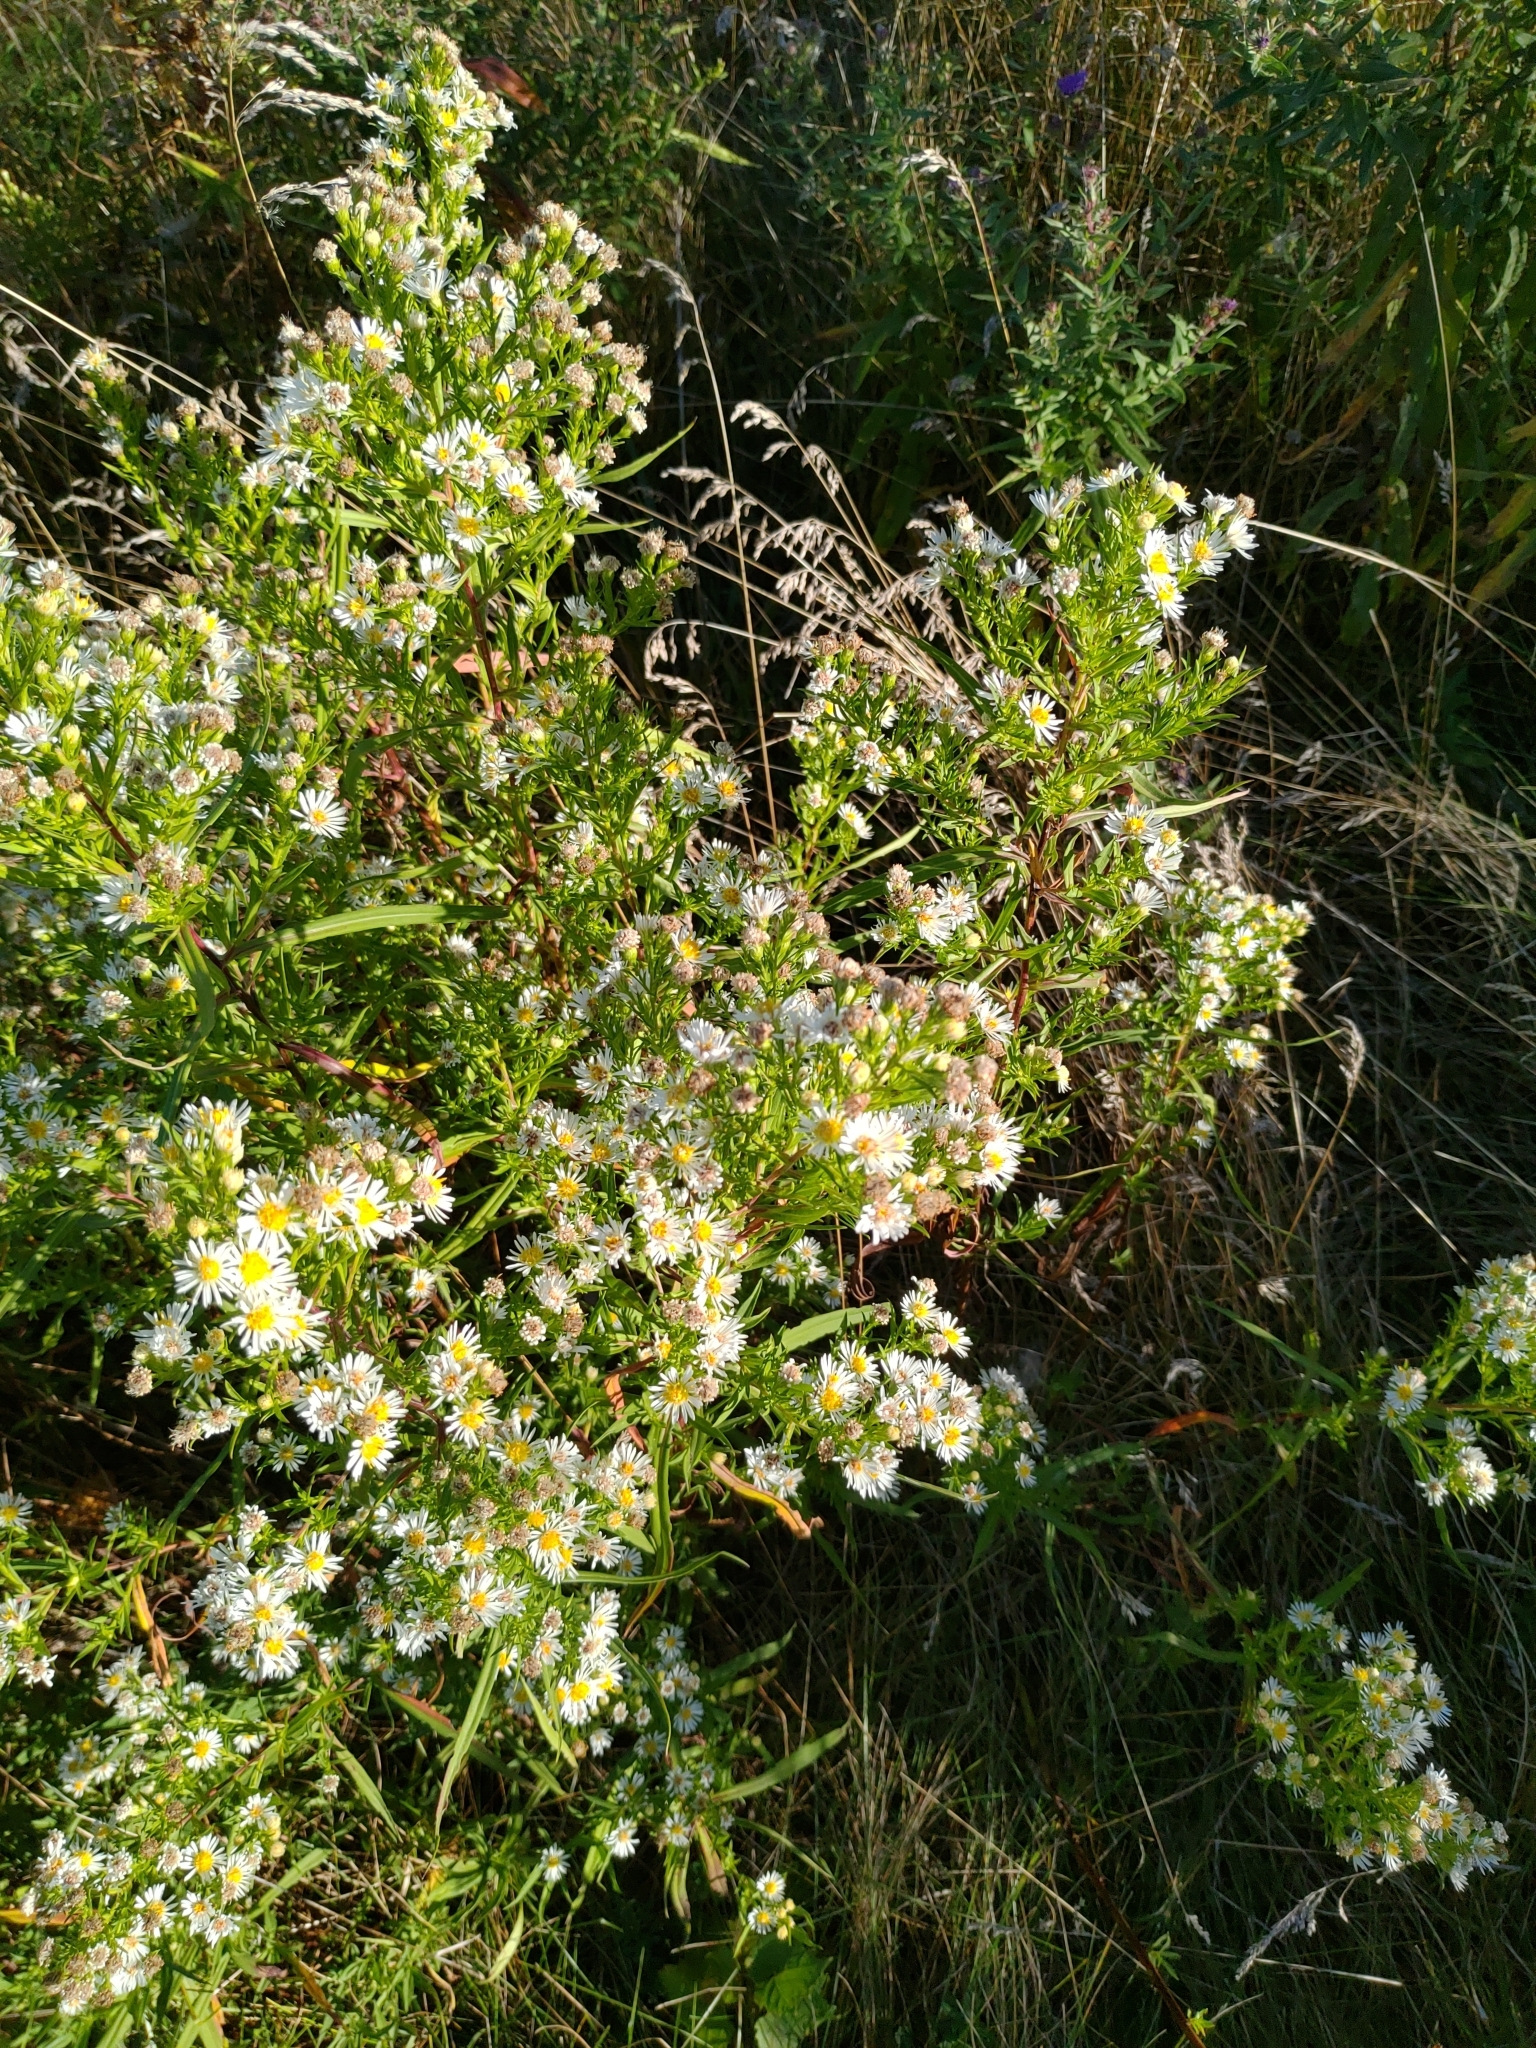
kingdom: Plantae
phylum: Tracheophyta
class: Magnoliopsida
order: Asterales
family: Asteraceae
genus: Symphyotrichum
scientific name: Symphyotrichum lanceolatum
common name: Panicled aster
